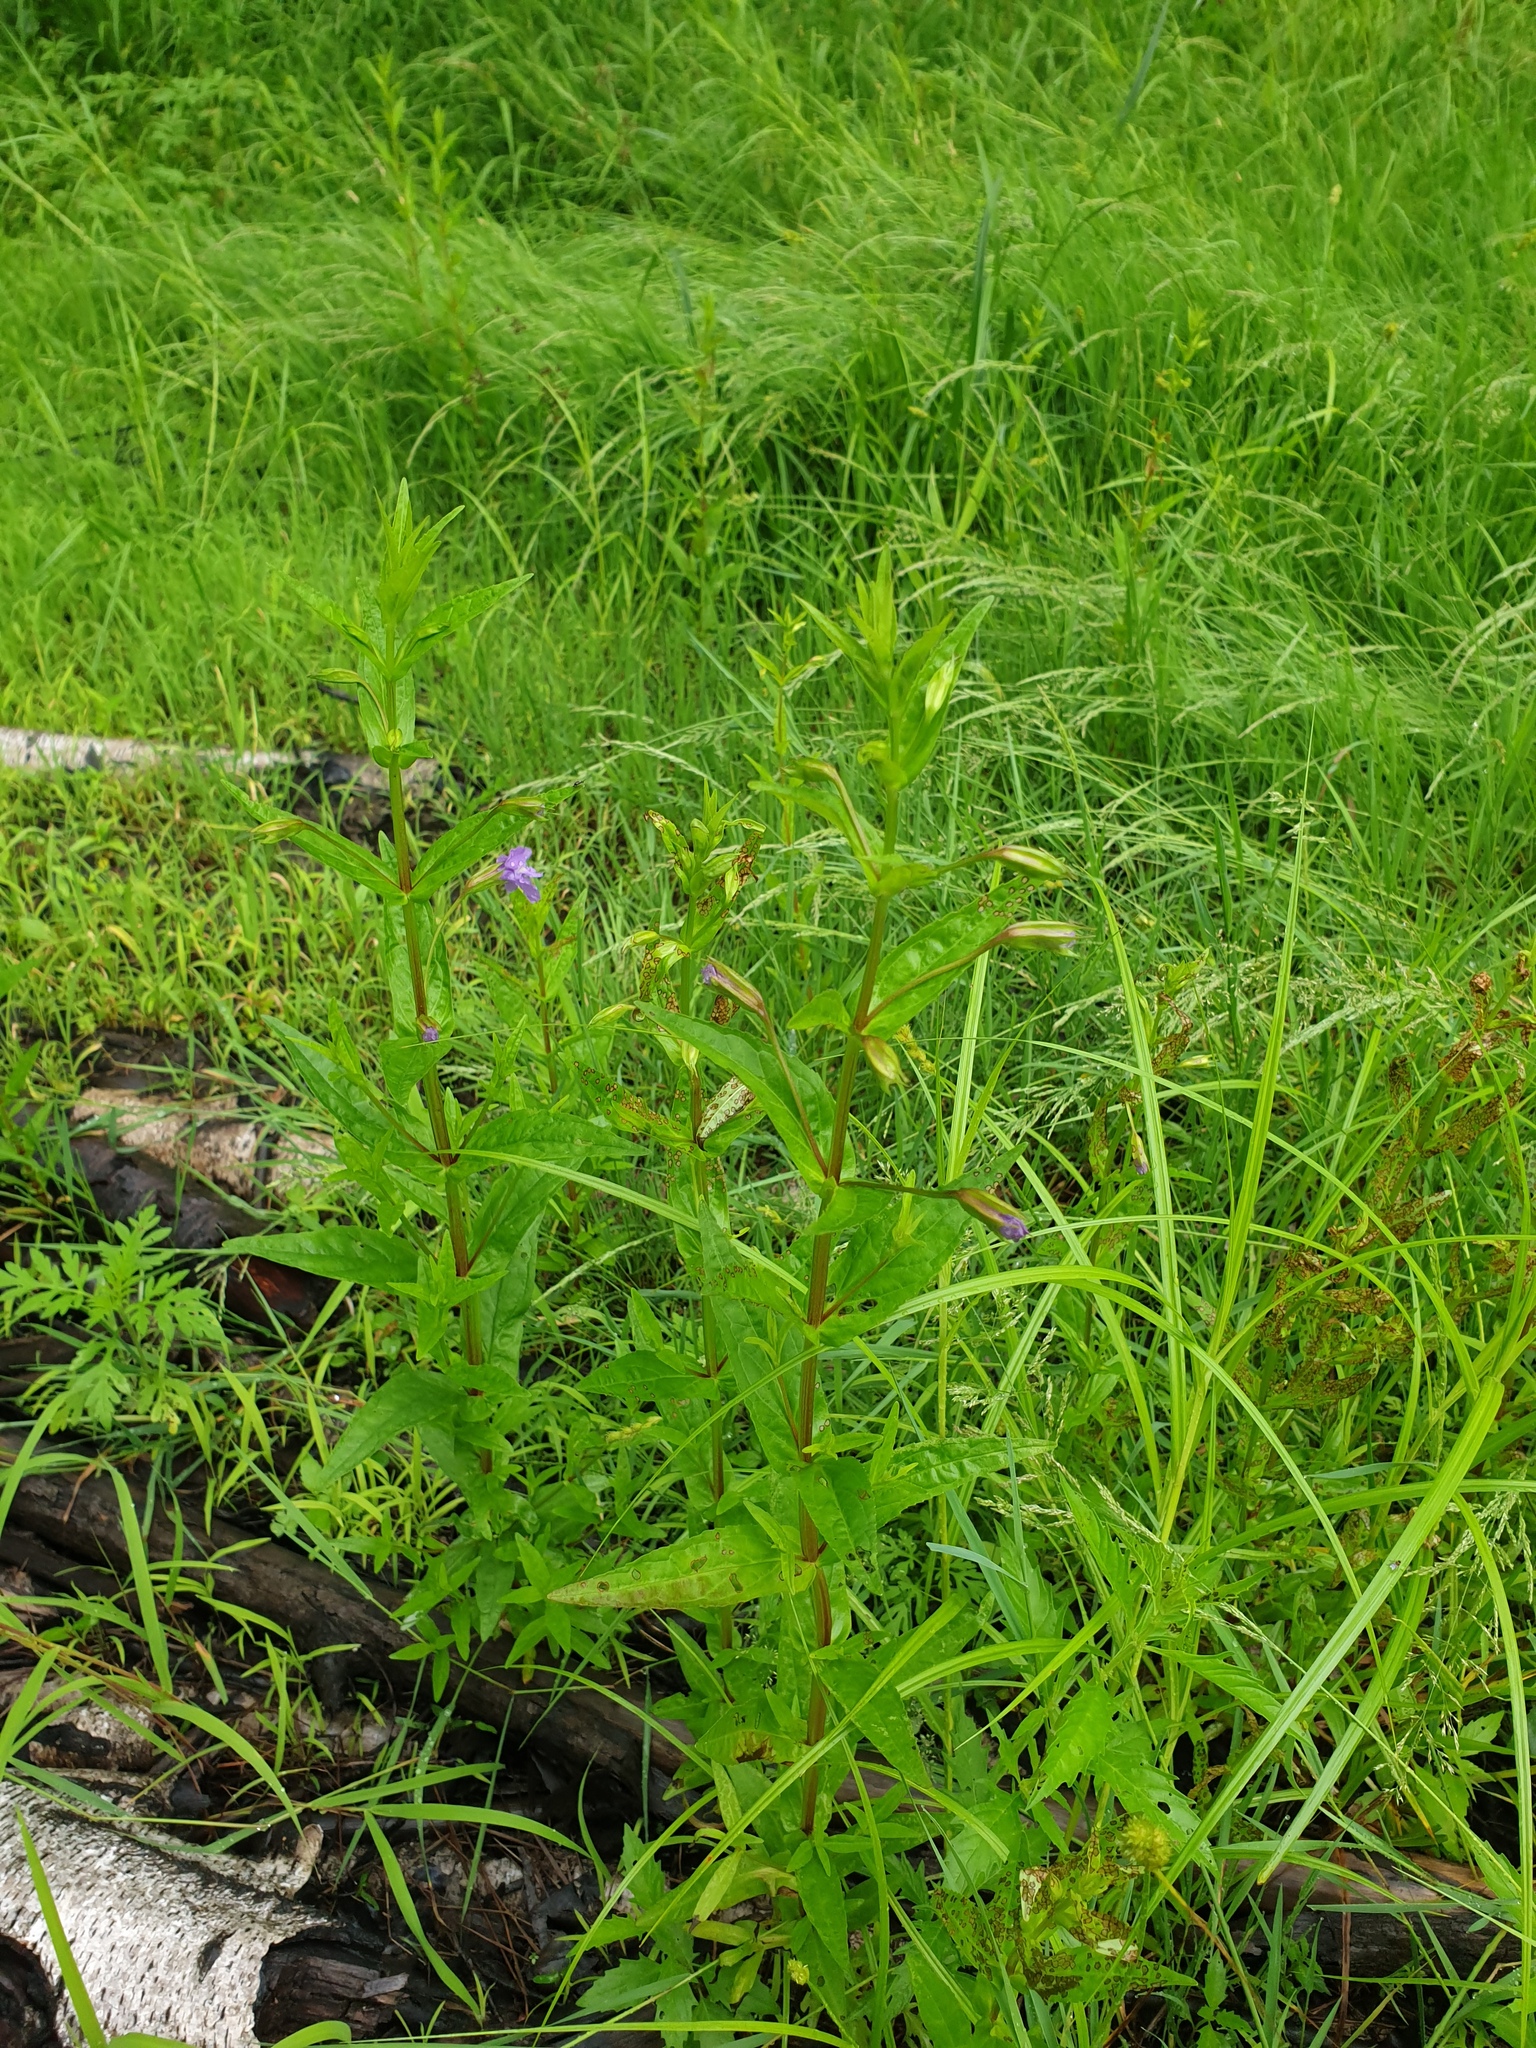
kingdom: Plantae
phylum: Tracheophyta
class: Magnoliopsida
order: Lamiales
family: Phrymaceae
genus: Mimulus
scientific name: Mimulus ringens
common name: Allegheny monkeyflower
